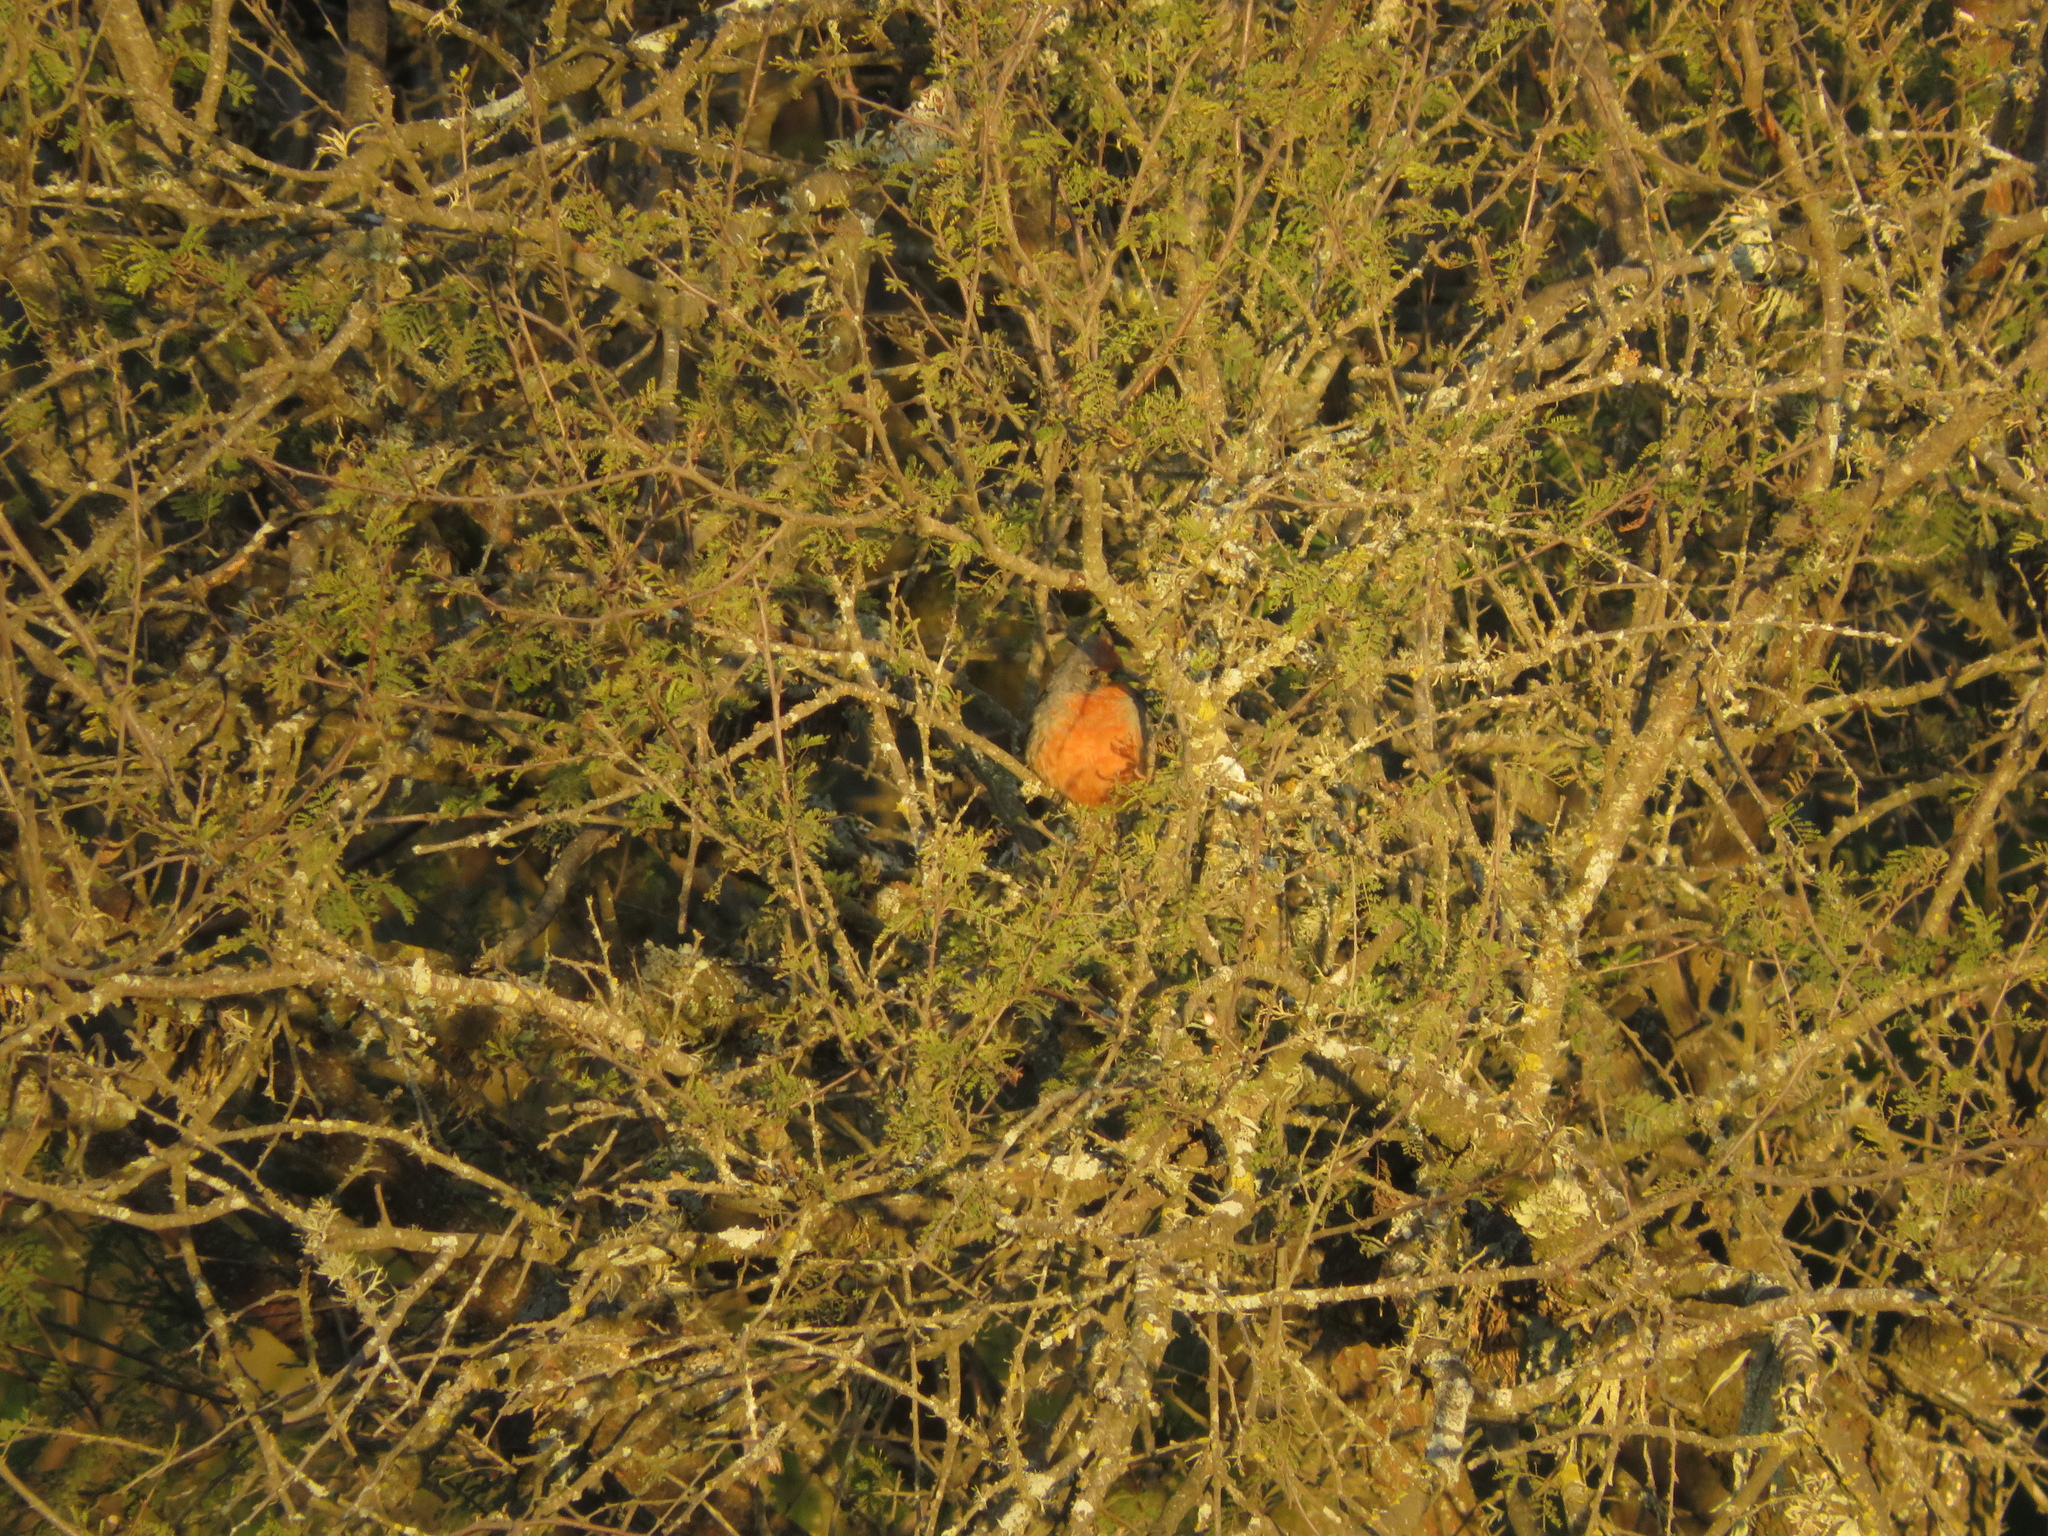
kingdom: Animalia
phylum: Chordata
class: Aves
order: Passeriformes
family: Cotingidae
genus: Phytotoma
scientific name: Phytotoma rutila
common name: White-tipped plantcutter
